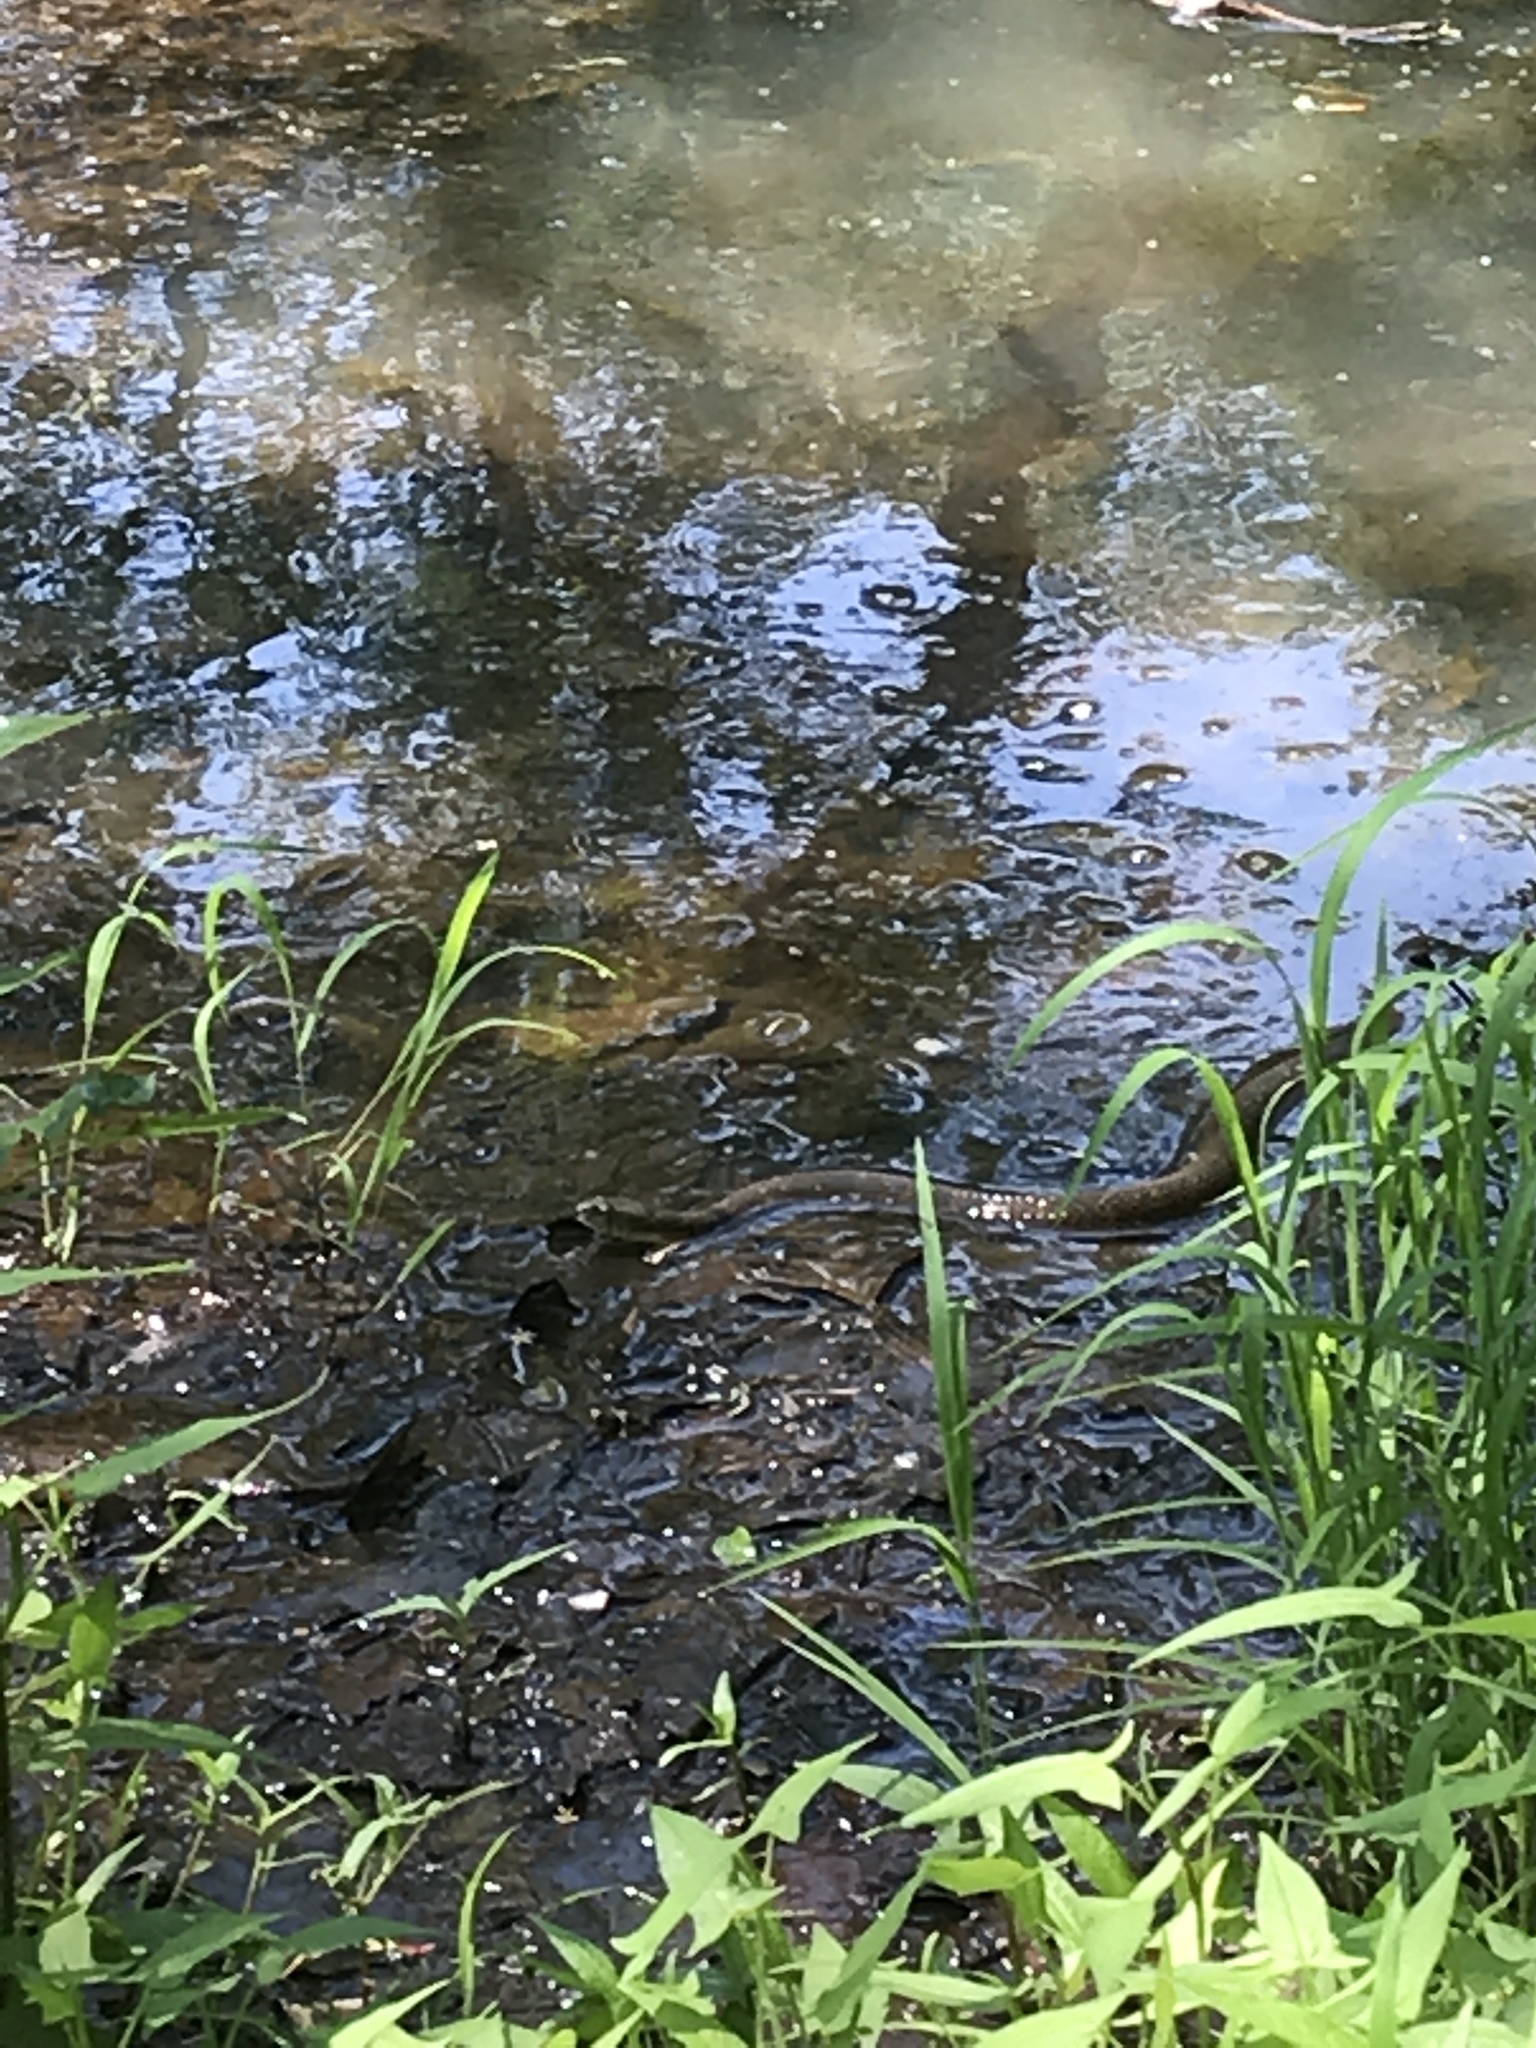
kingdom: Animalia
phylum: Chordata
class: Squamata
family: Colubridae
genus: Nerodia
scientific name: Nerodia sipedon
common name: Northern water snake
